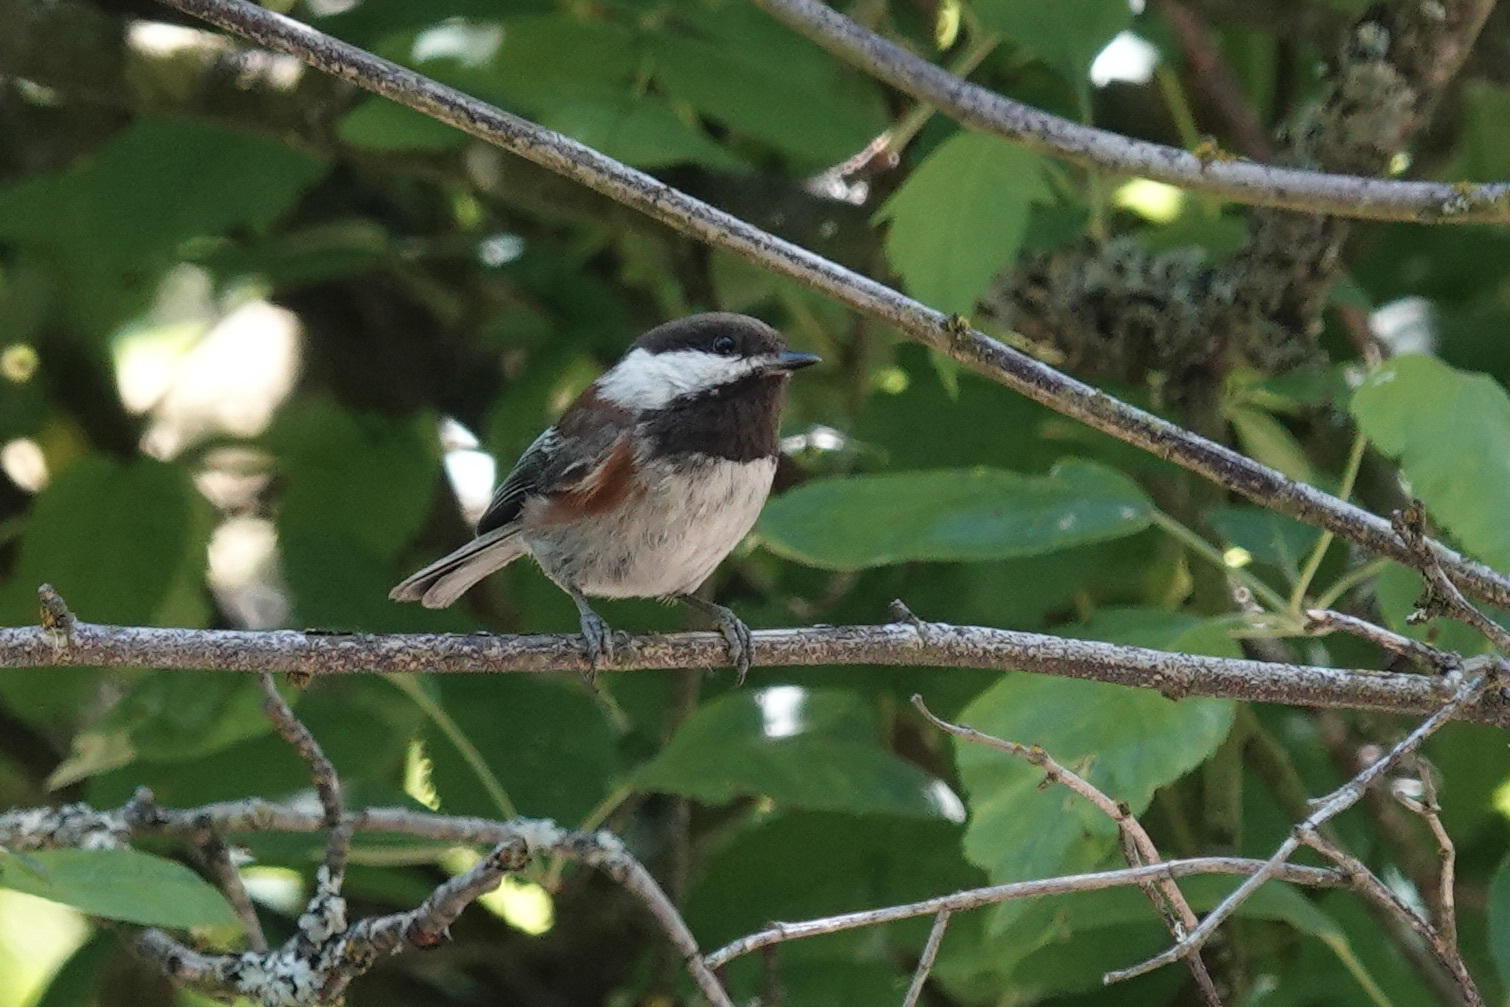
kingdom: Animalia
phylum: Chordata
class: Aves
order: Passeriformes
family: Paridae
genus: Poecile
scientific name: Poecile rufescens
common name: Chestnut-backed chickadee
